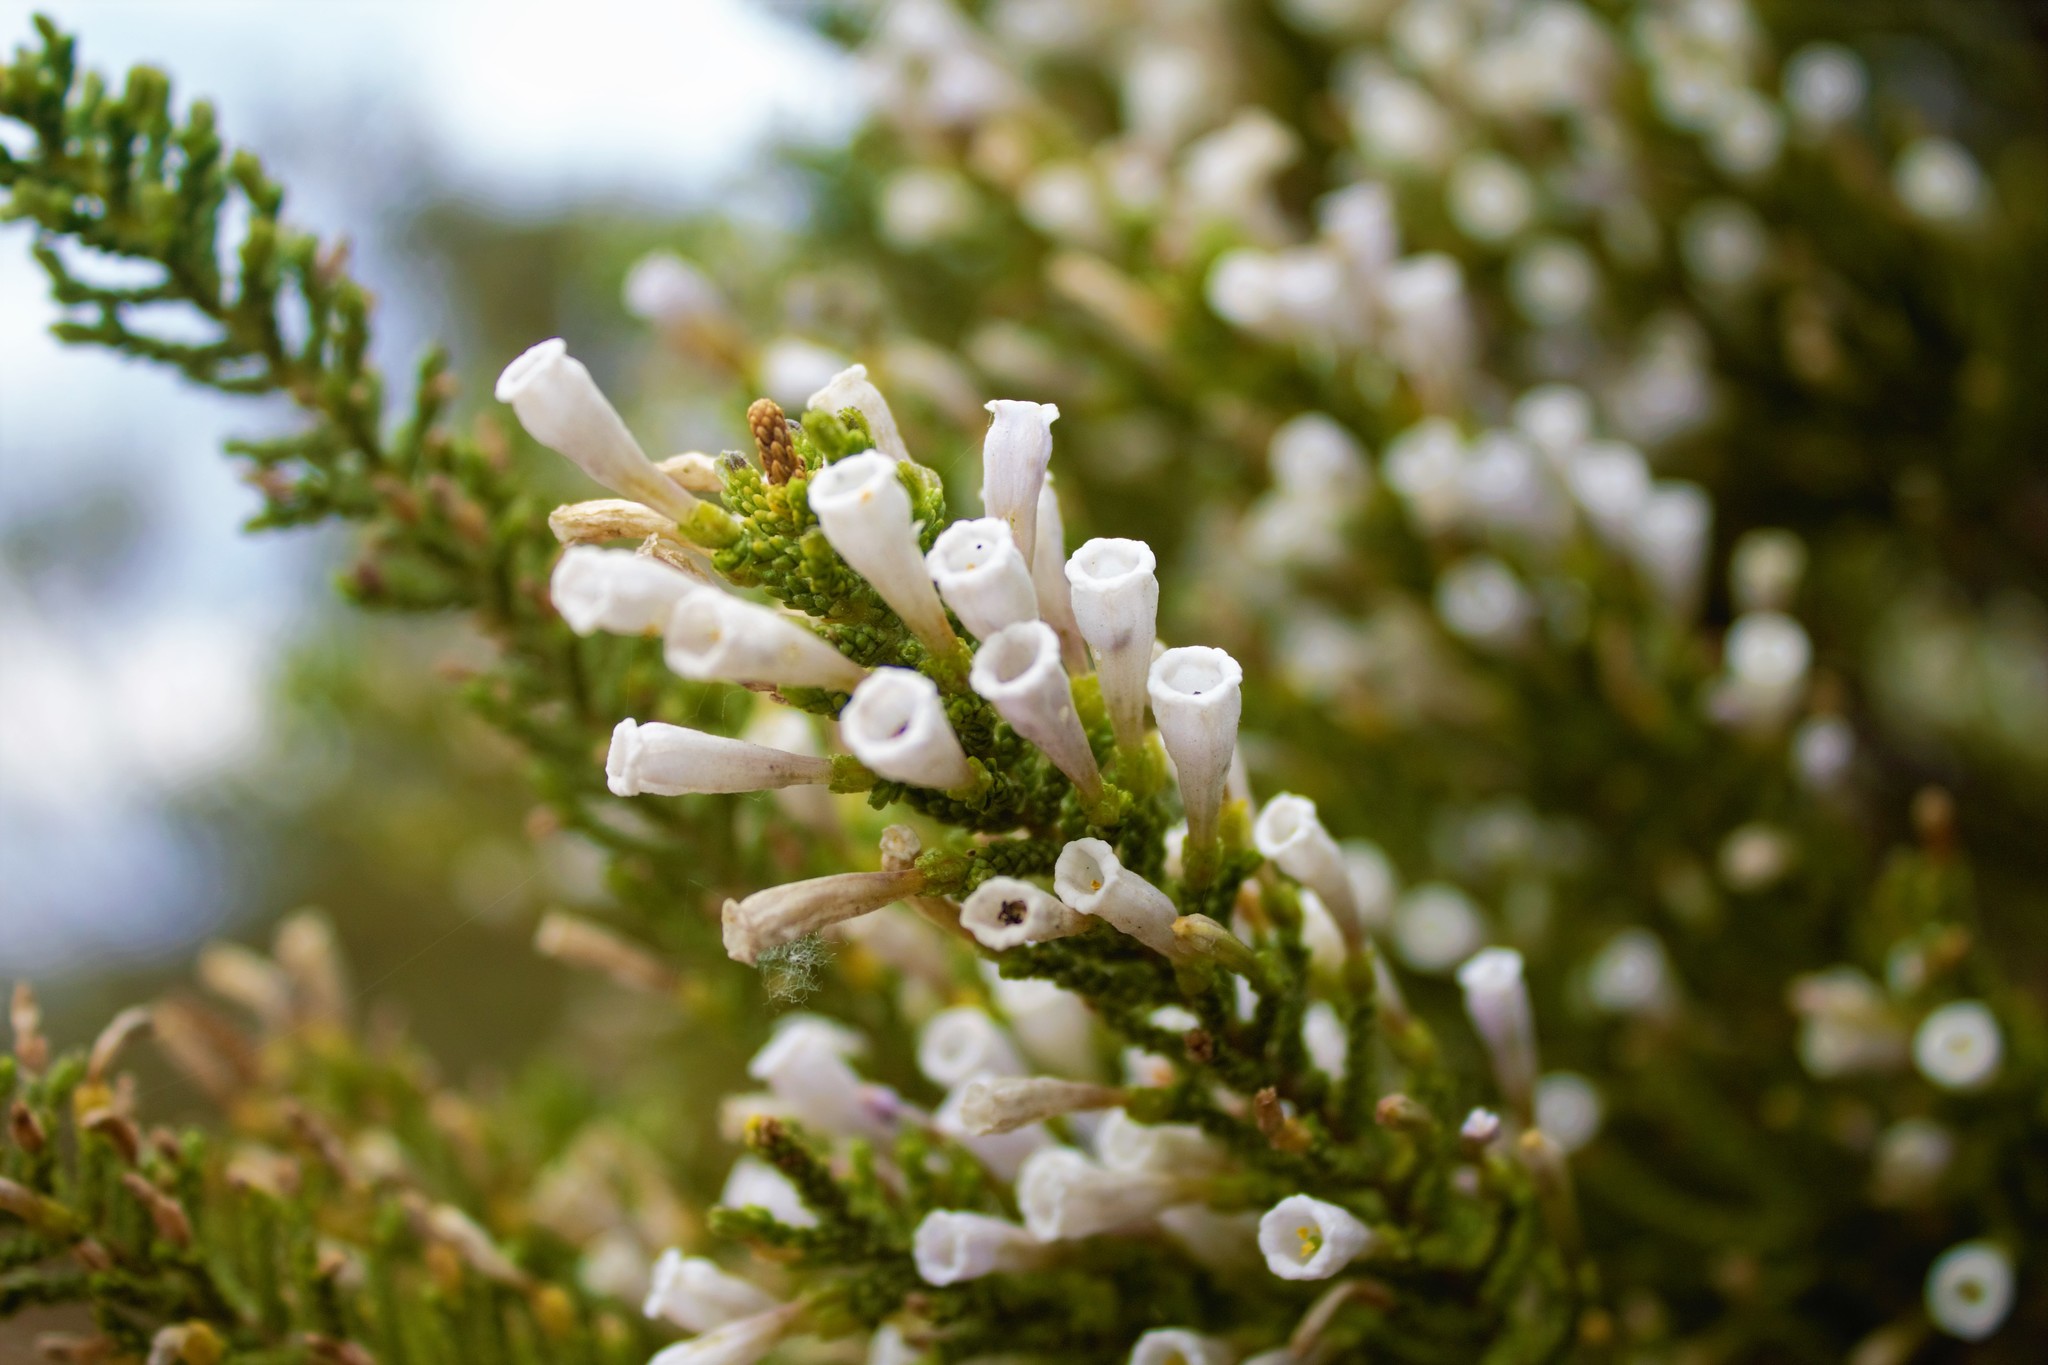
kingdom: Plantae
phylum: Tracheophyta
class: Magnoliopsida
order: Solanales
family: Solanaceae
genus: Fabiana
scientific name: Fabiana imbricata
